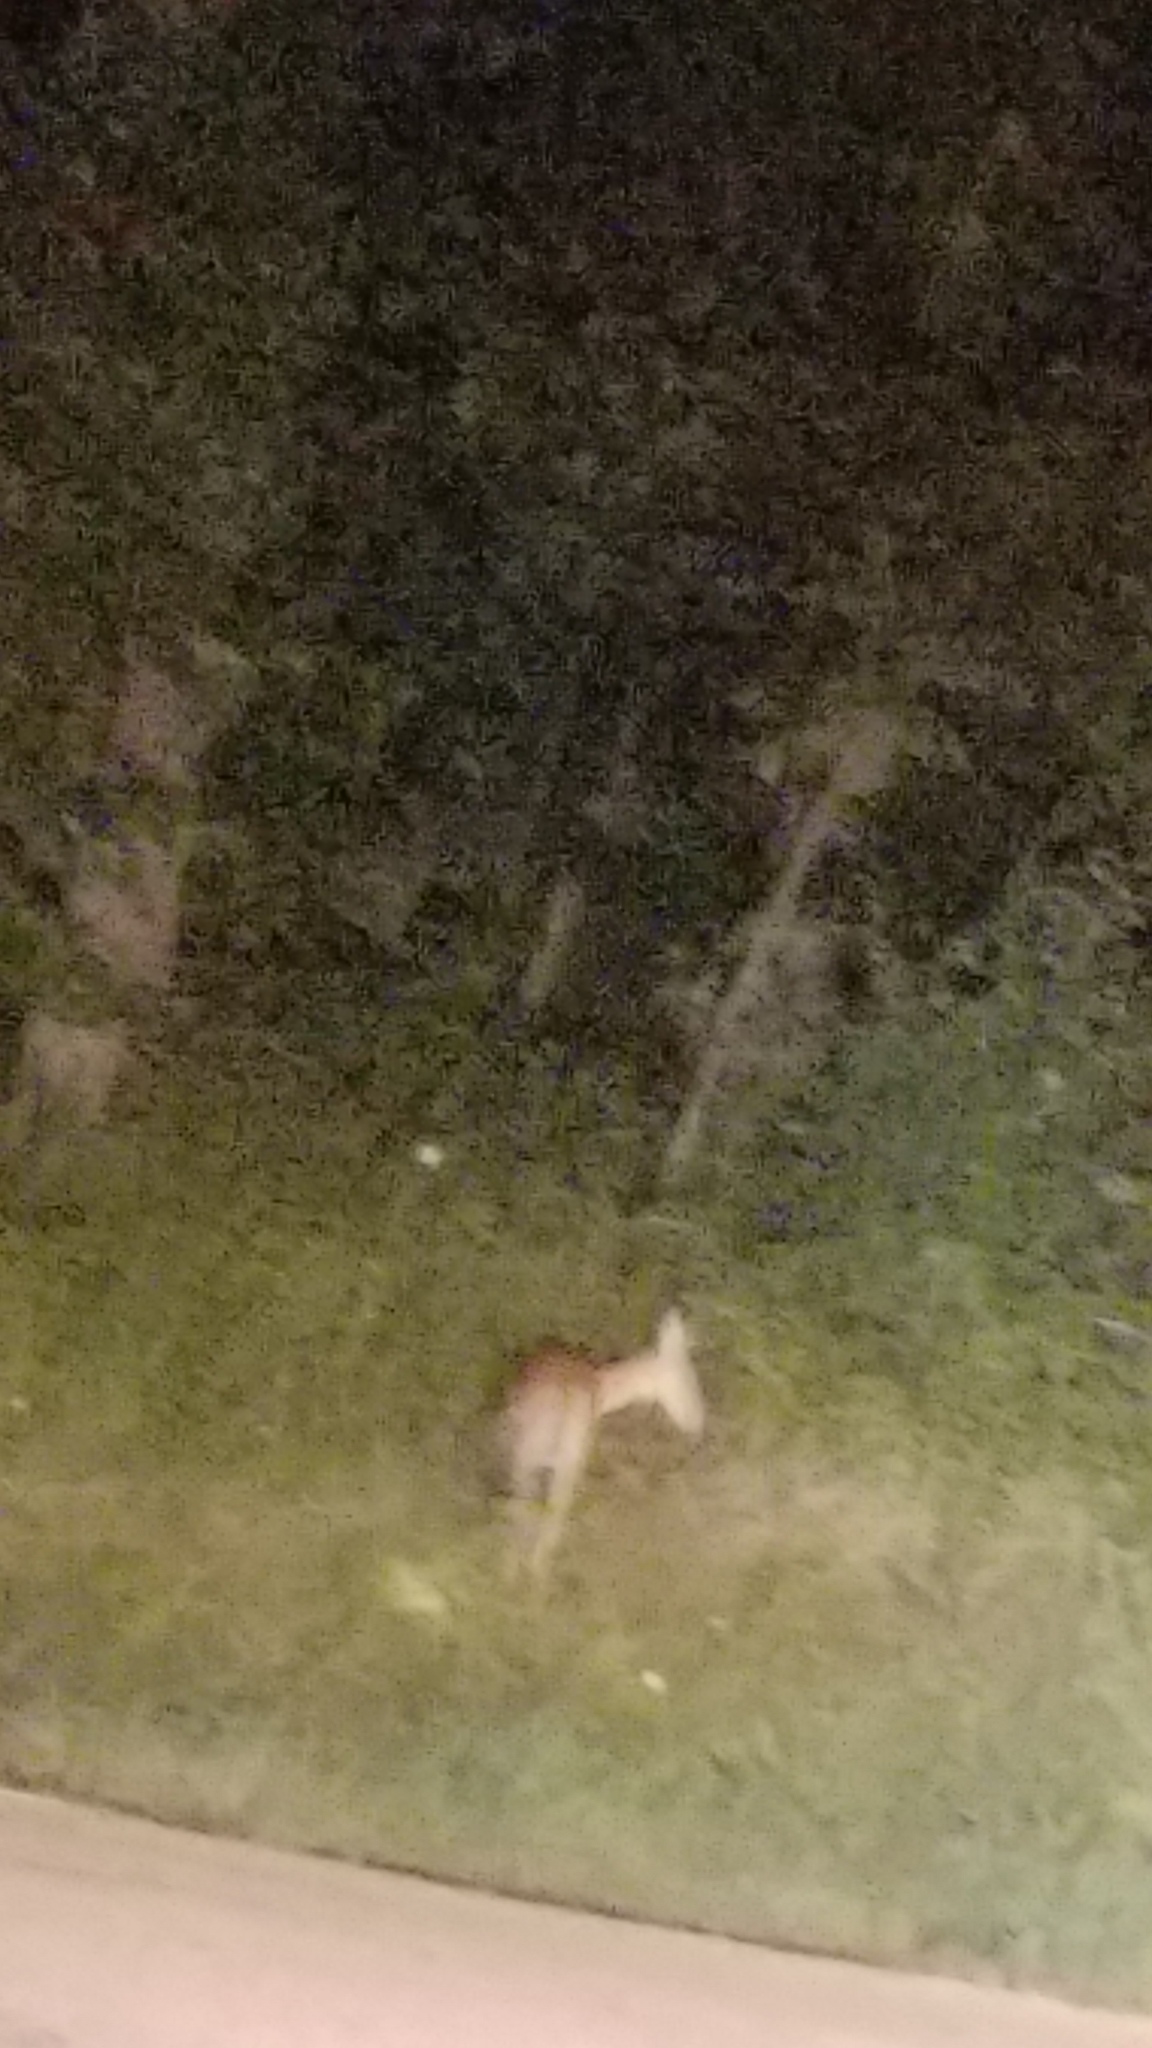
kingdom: Animalia
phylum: Chordata
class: Mammalia
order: Artiodactyla
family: Cervidae
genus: Odocoileus
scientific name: Odocoileus virginianus
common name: White-tailed deer
